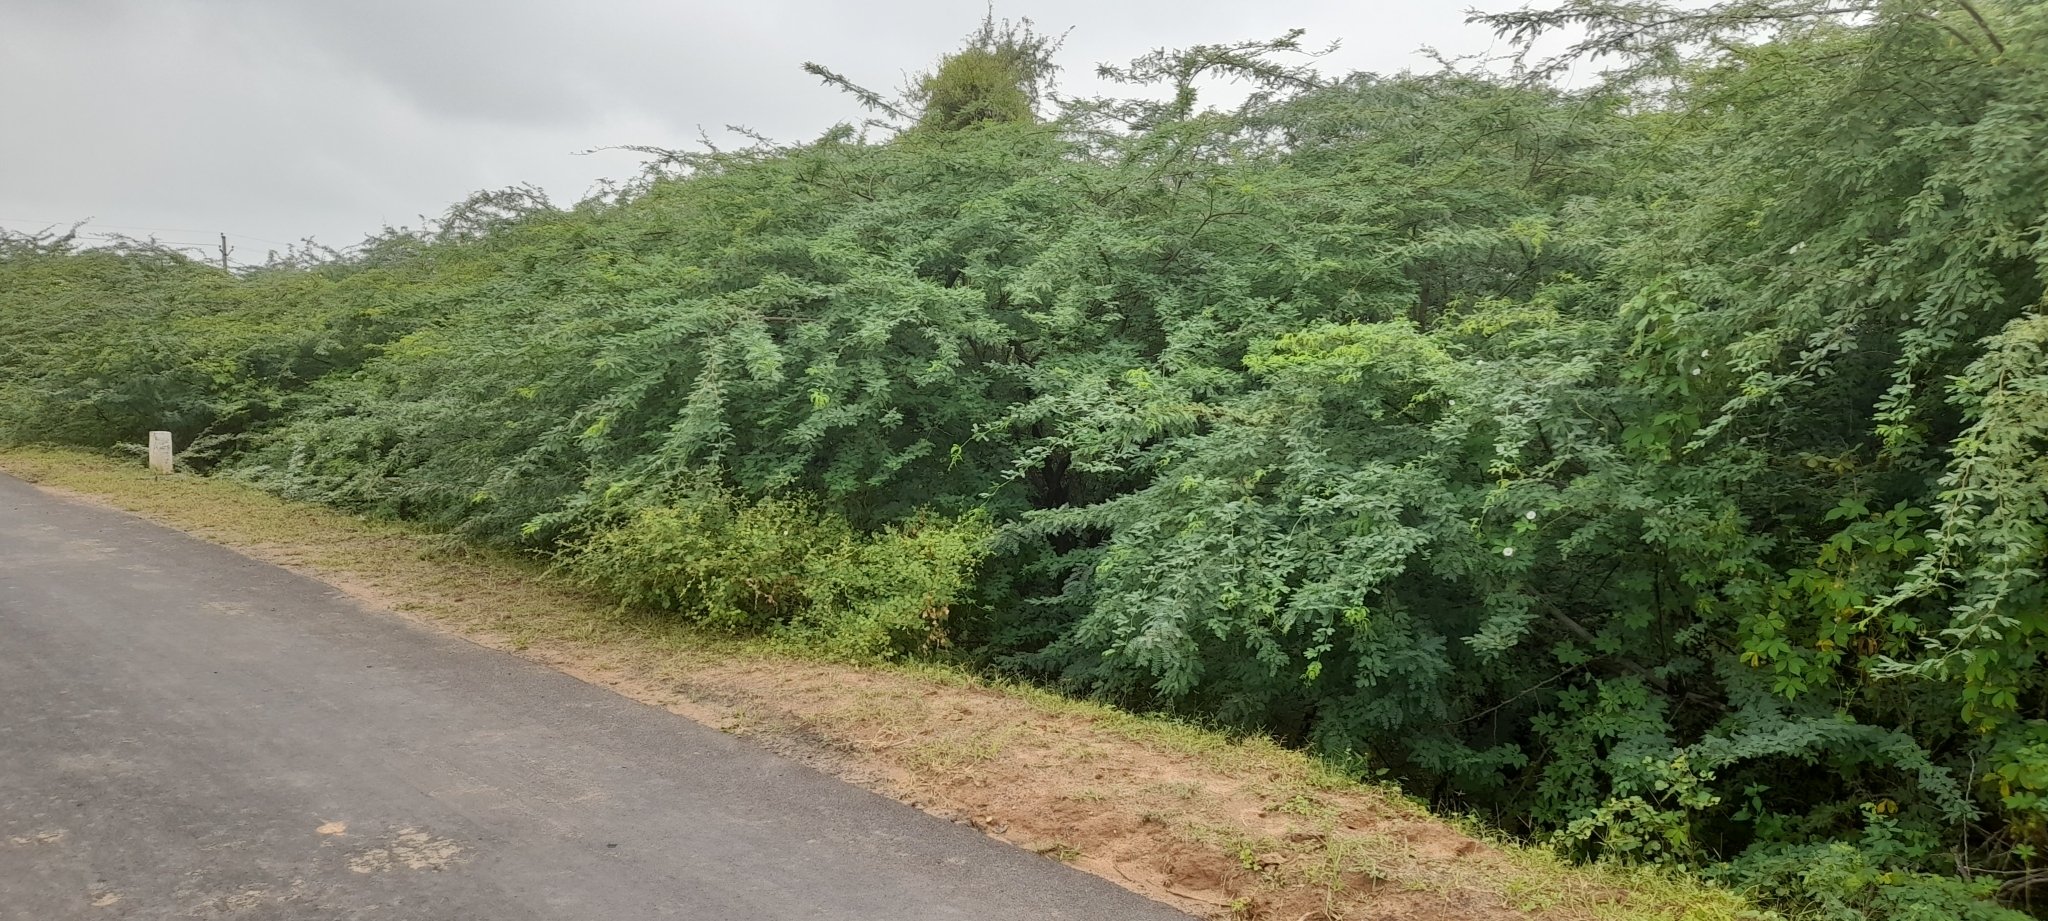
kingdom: Plantae
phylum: Tracheophyta
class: Magnoliopsida
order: Fabales
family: Fabaceae
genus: Prosopis
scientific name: Prosopis juliflora
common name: Mesquite
